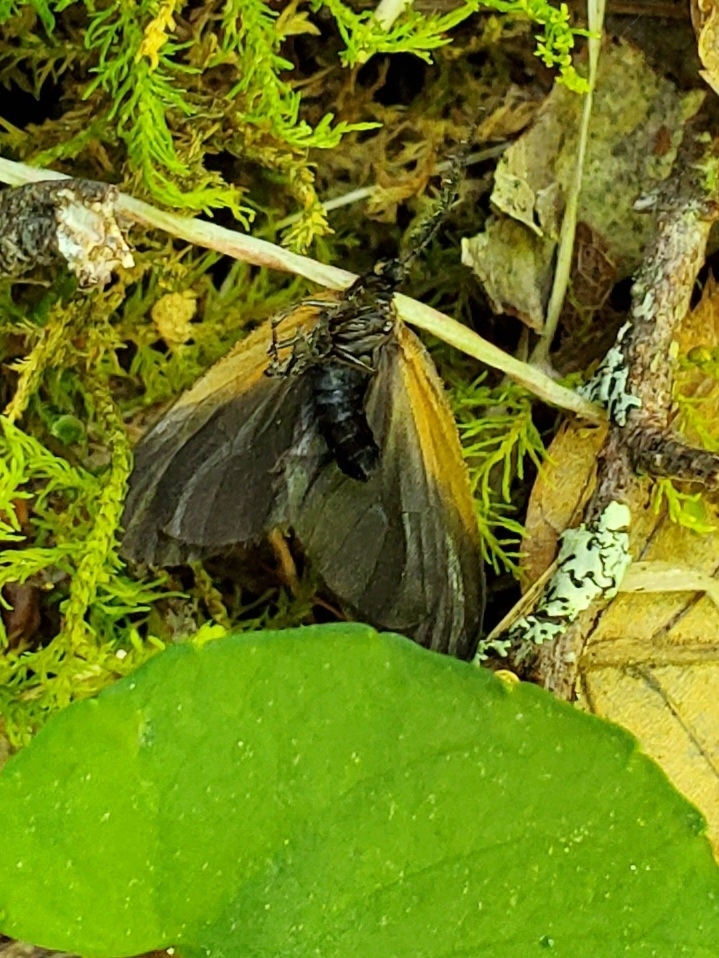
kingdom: Animalia
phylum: Arthropoda
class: Insecta
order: Lepidoptera
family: Zygaenidae
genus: Malthaca
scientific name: Malthaca dimidiata
